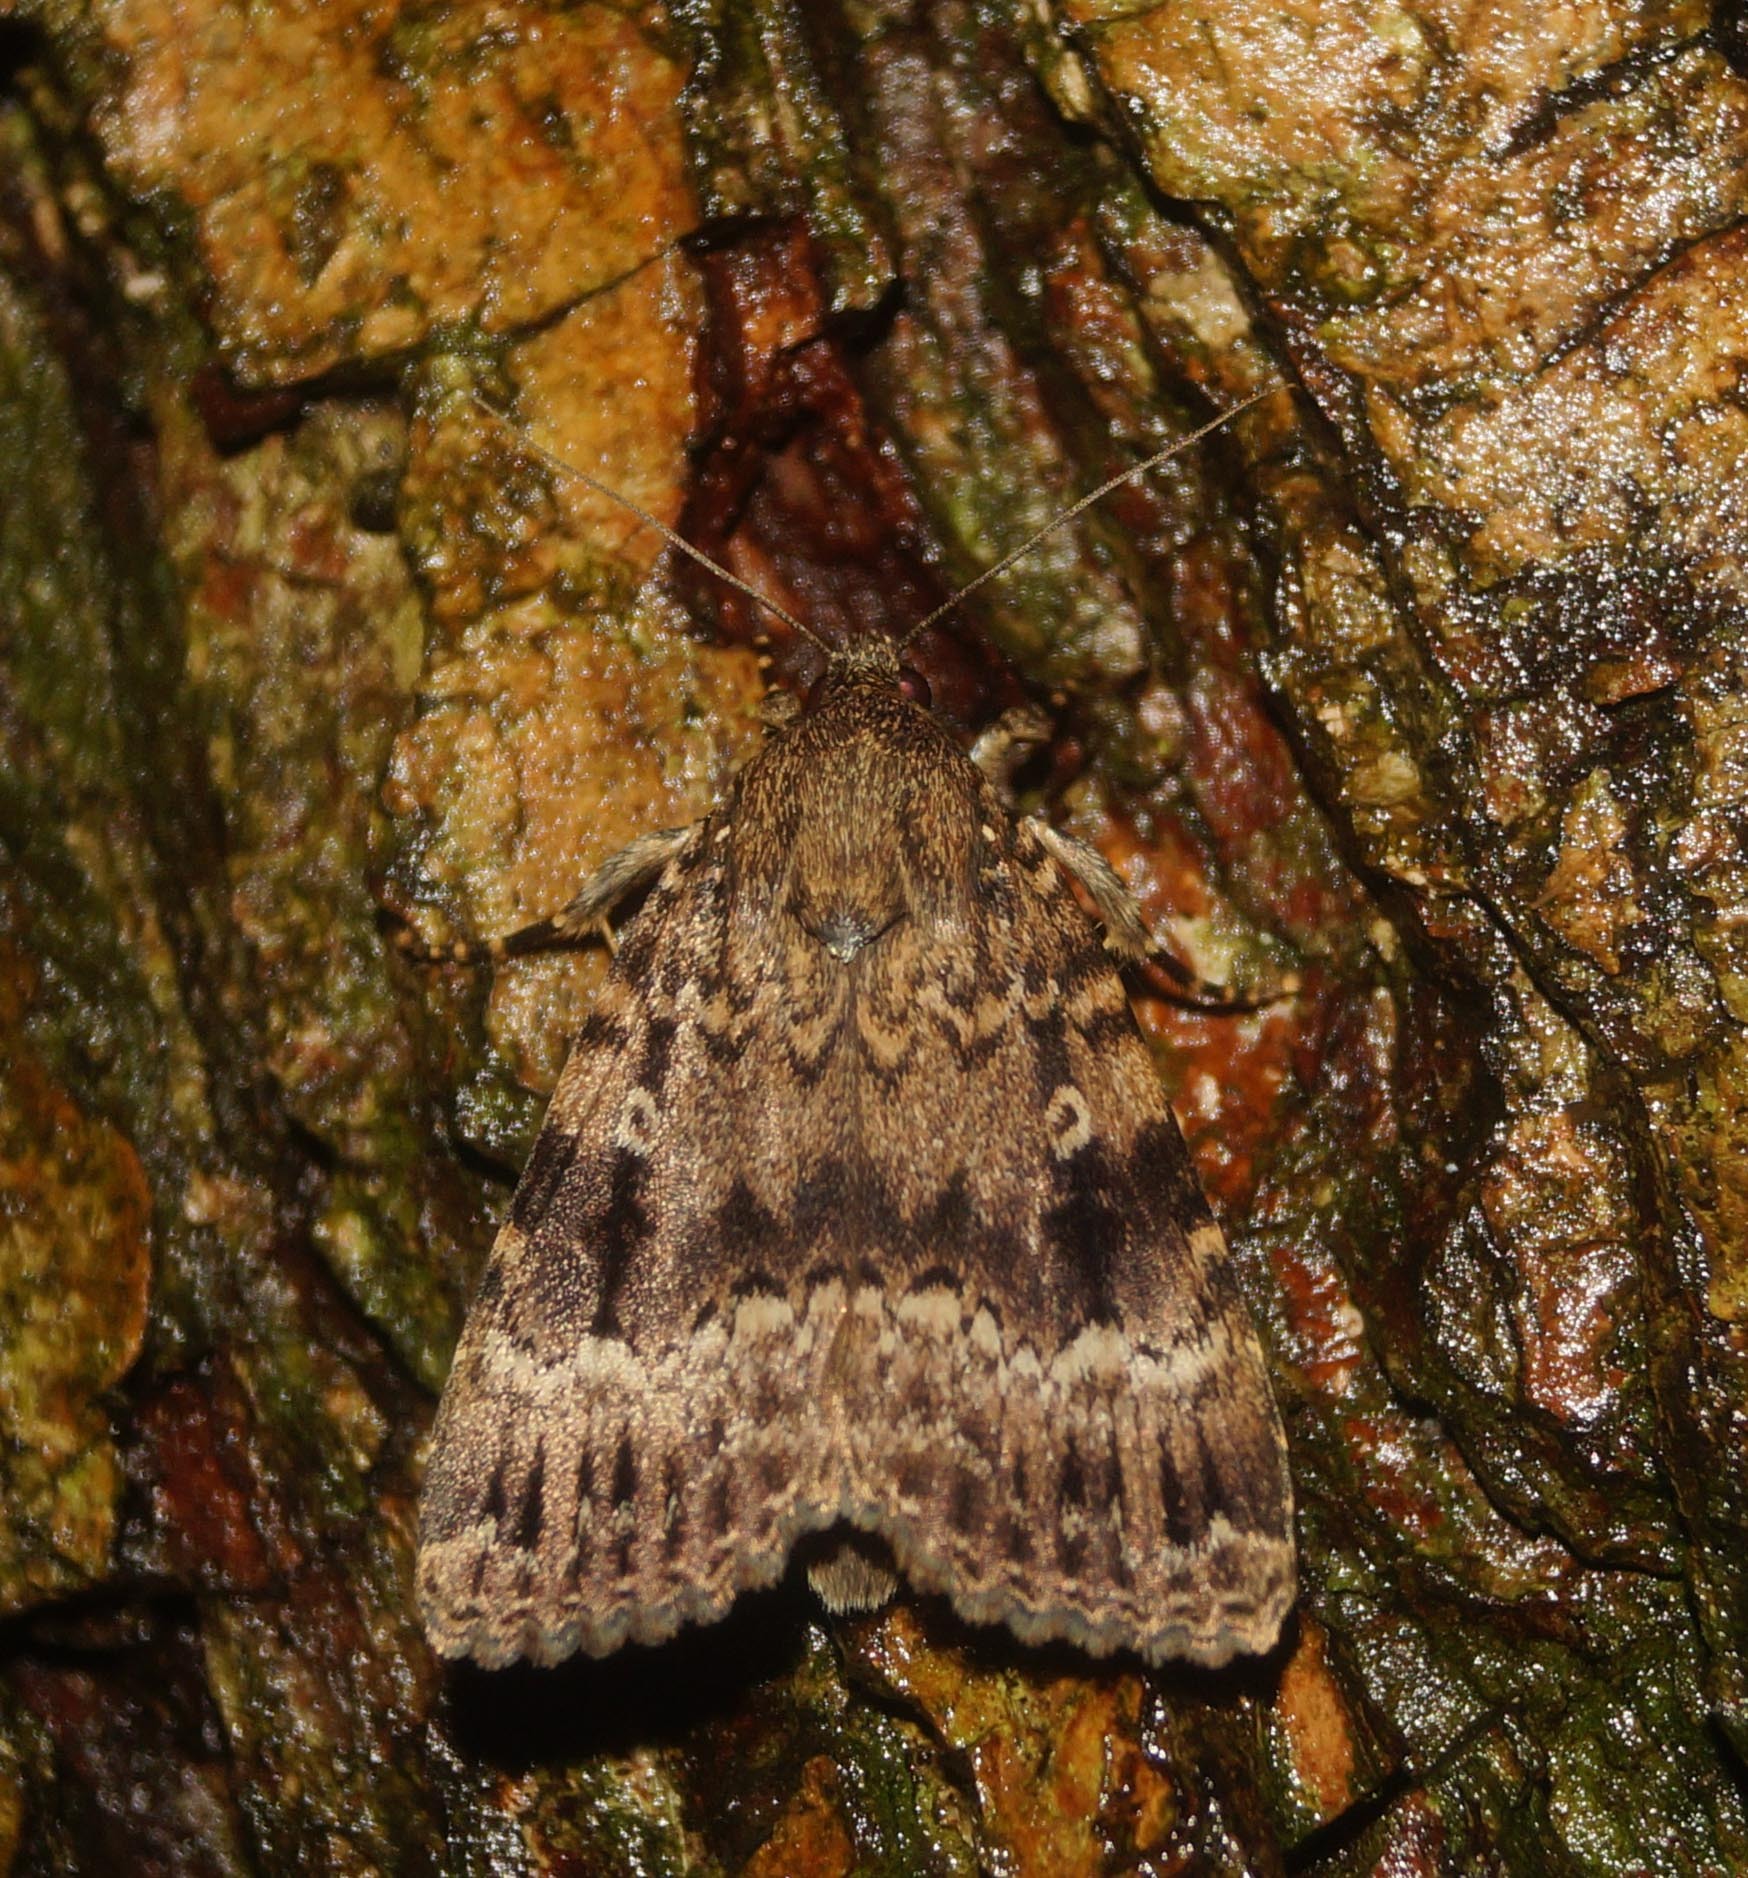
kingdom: Animalia
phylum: Arthropoda
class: Insecta
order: Lepidoptera
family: Noctuidae
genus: Amphipyra
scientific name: Amphipyra berbera
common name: Svensson's copper underwing
